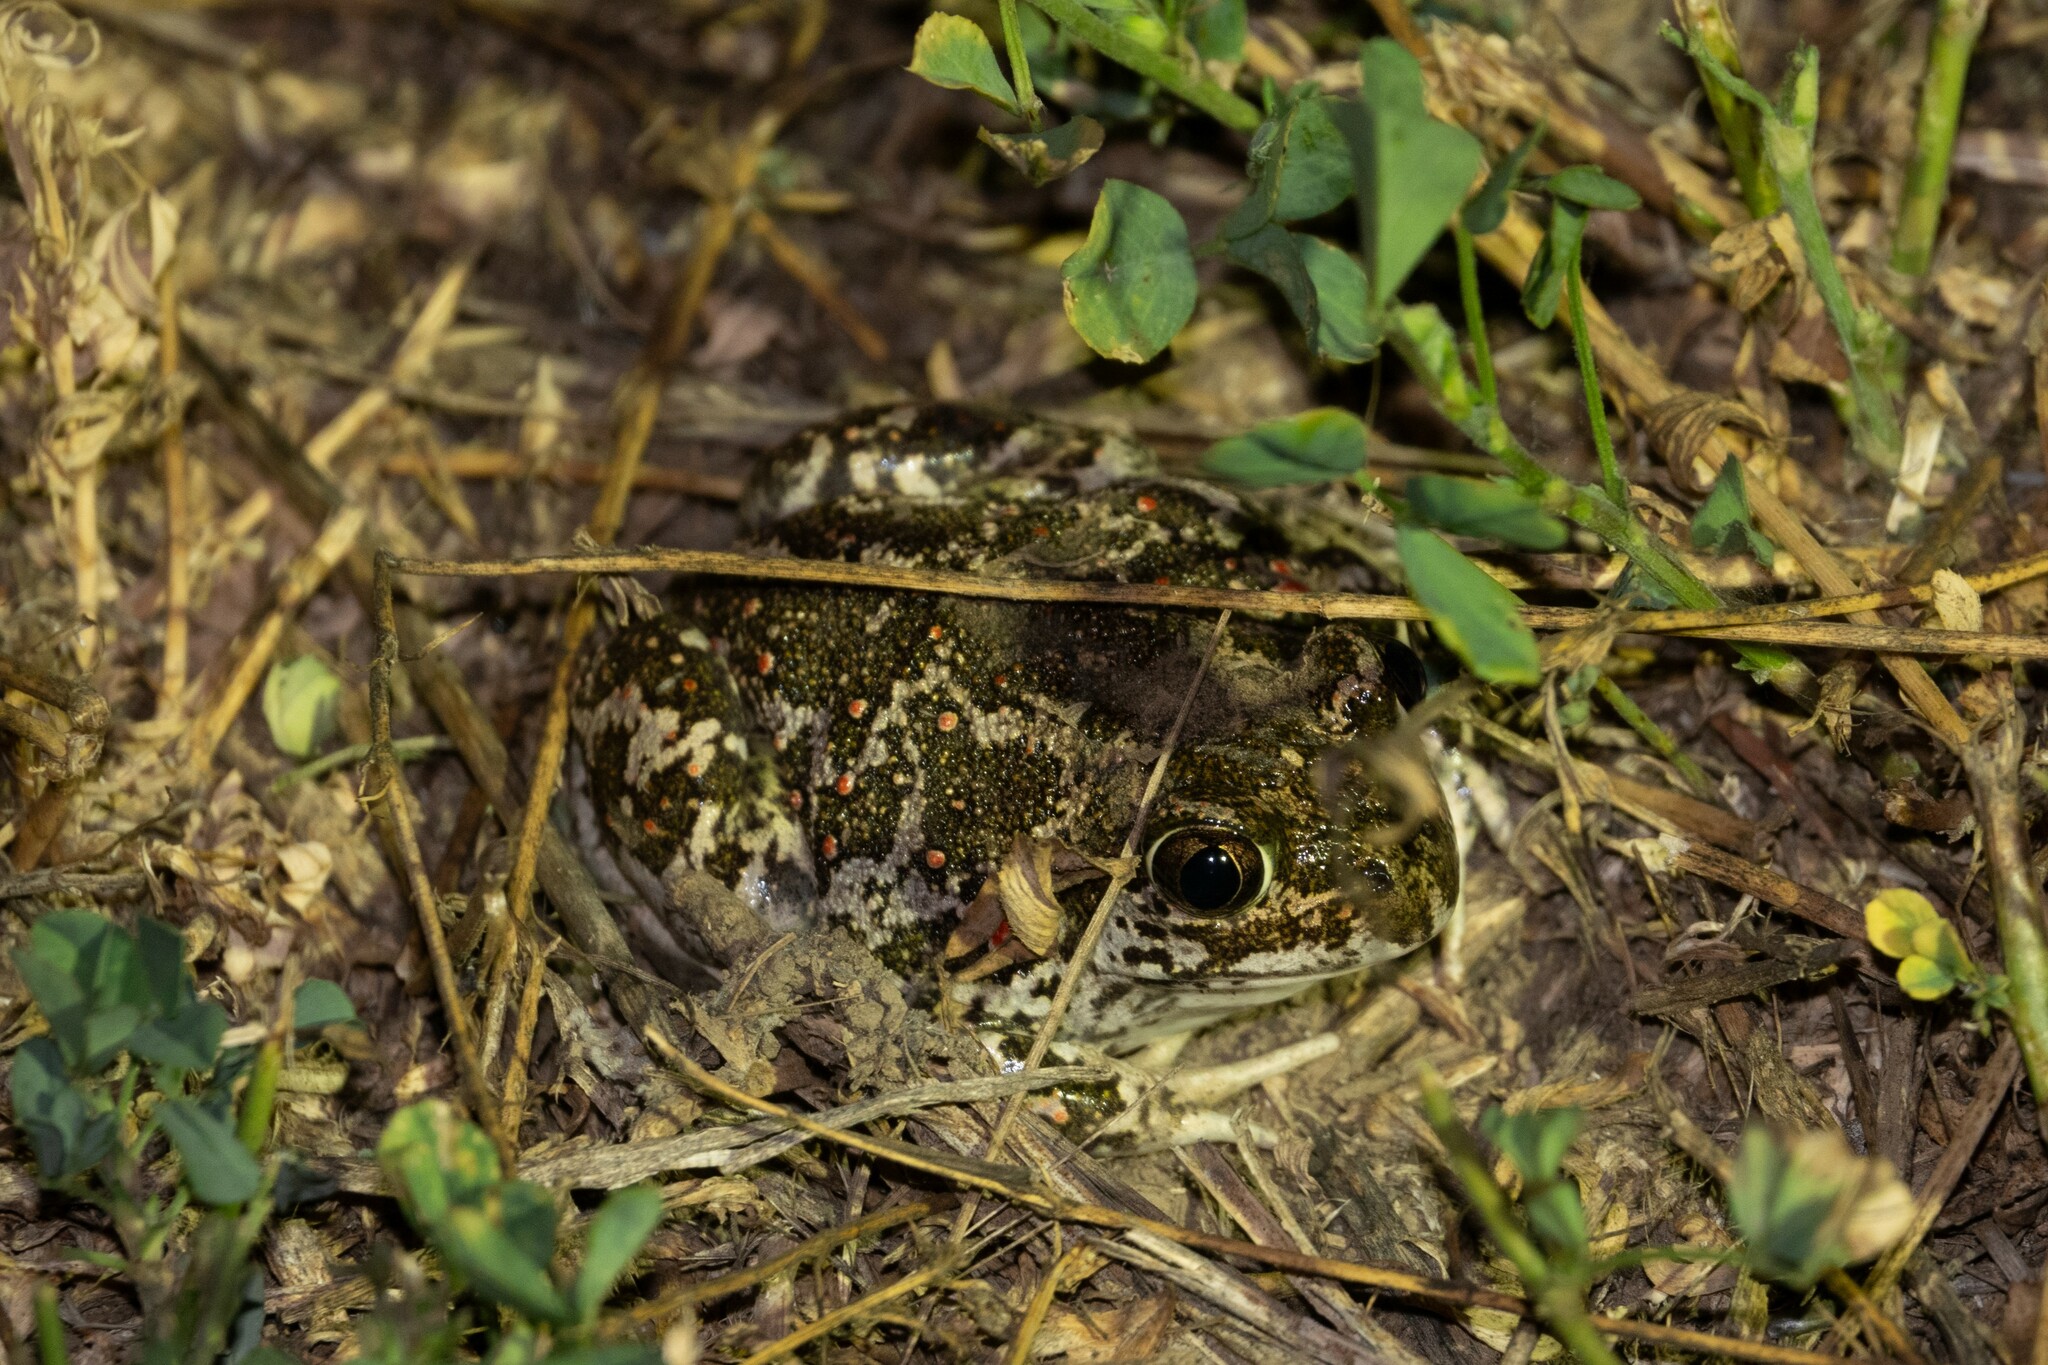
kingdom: Animalia
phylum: Chordata
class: Amphibia
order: Anura
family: Pelobatidae
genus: Pelobates
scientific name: Pelobates balcanicus
